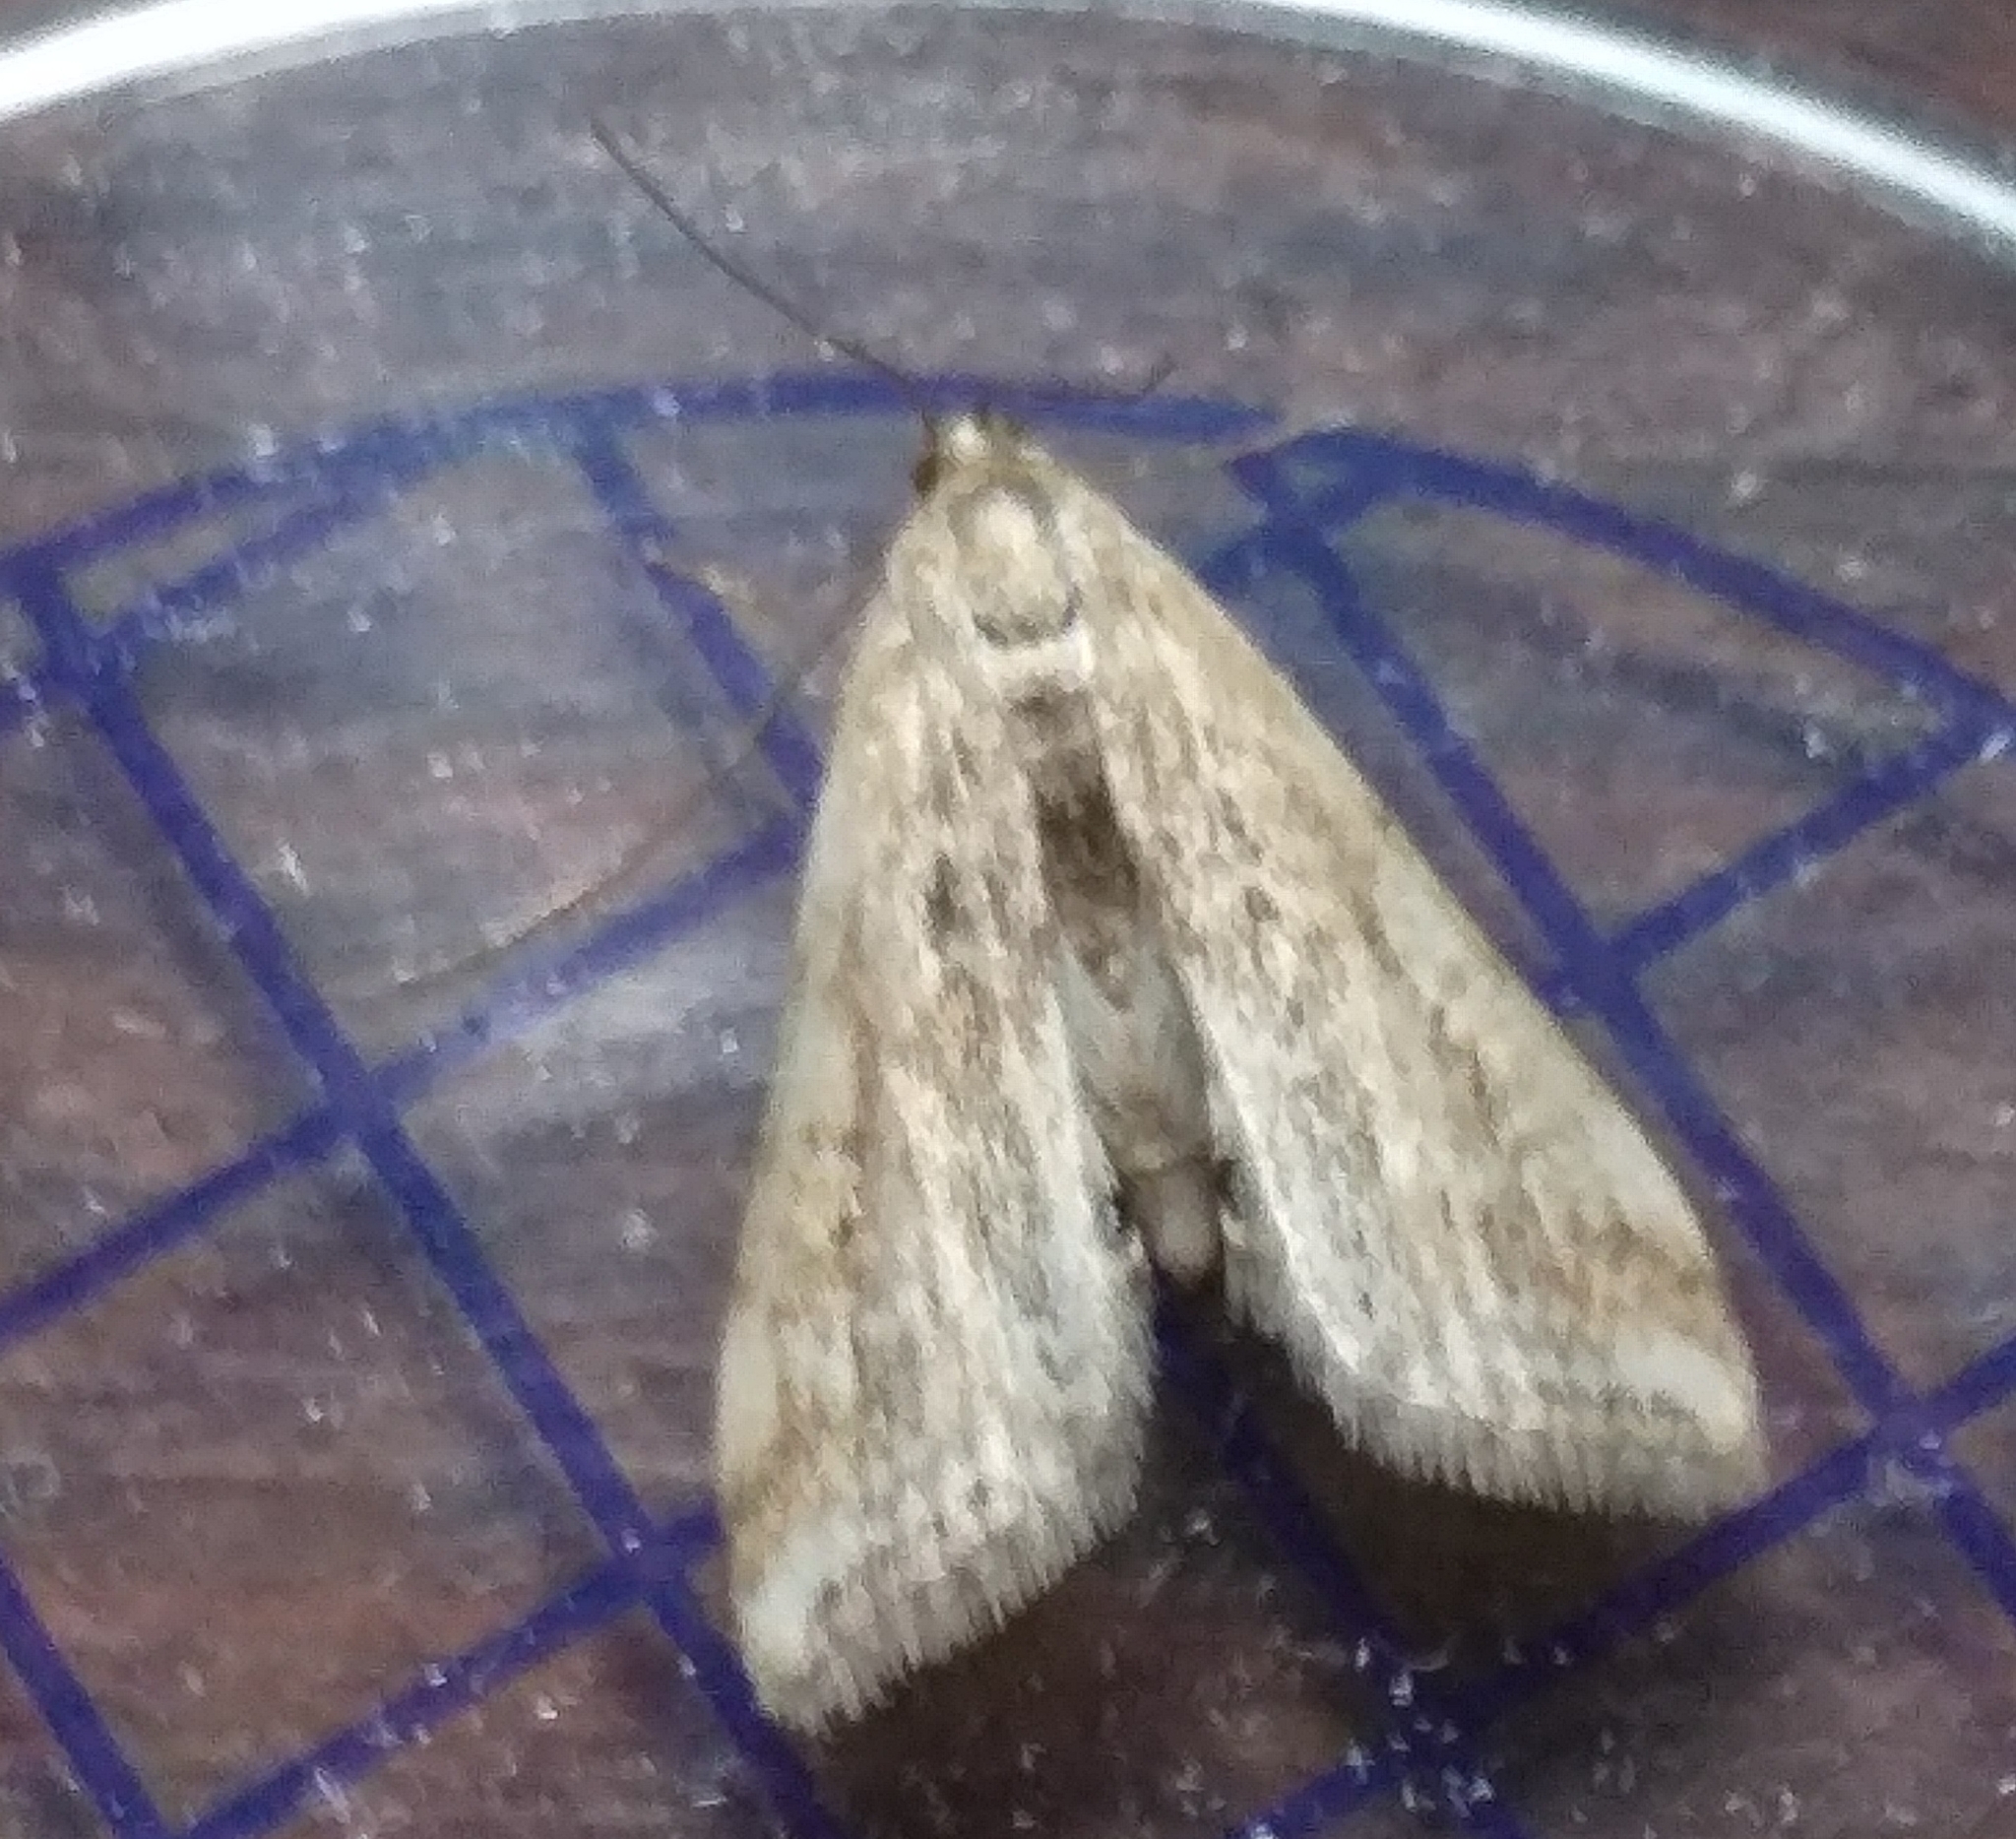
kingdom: Animalia
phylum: Arthropoda
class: Insecta
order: Lepidoptera
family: Crambidae
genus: Cataclysta
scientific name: Cataclysta lemnata
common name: Small china-mark
